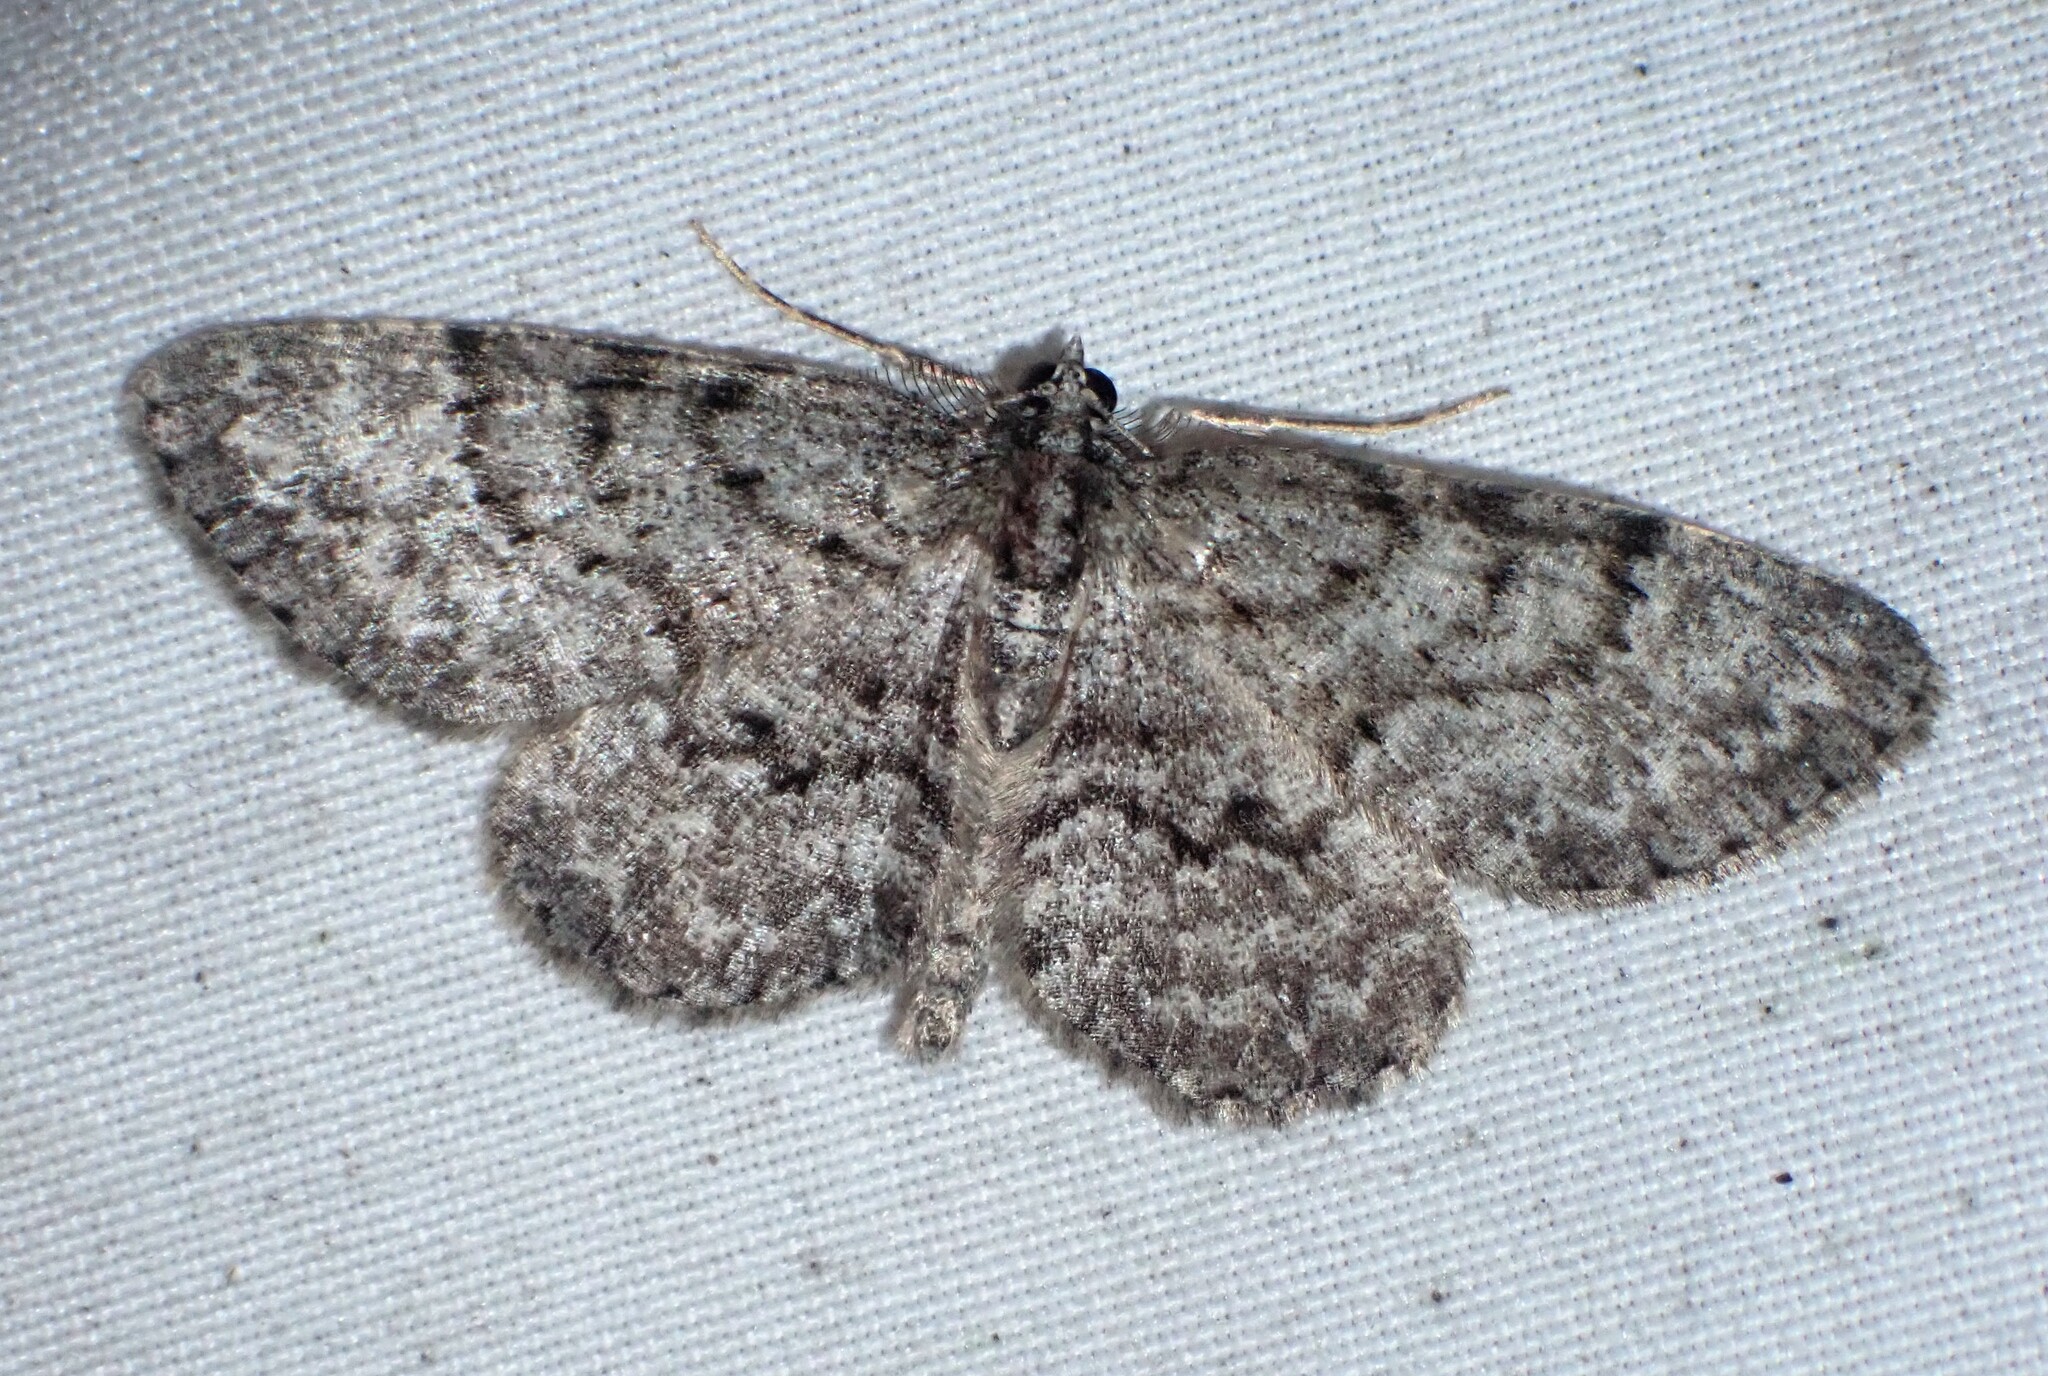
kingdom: Animalia
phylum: Arthropoda
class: Insecta
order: Lepidoptera
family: Geometridae
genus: Protoboarmia
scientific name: Protoboarmia porcelaria
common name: Porcelain gray
